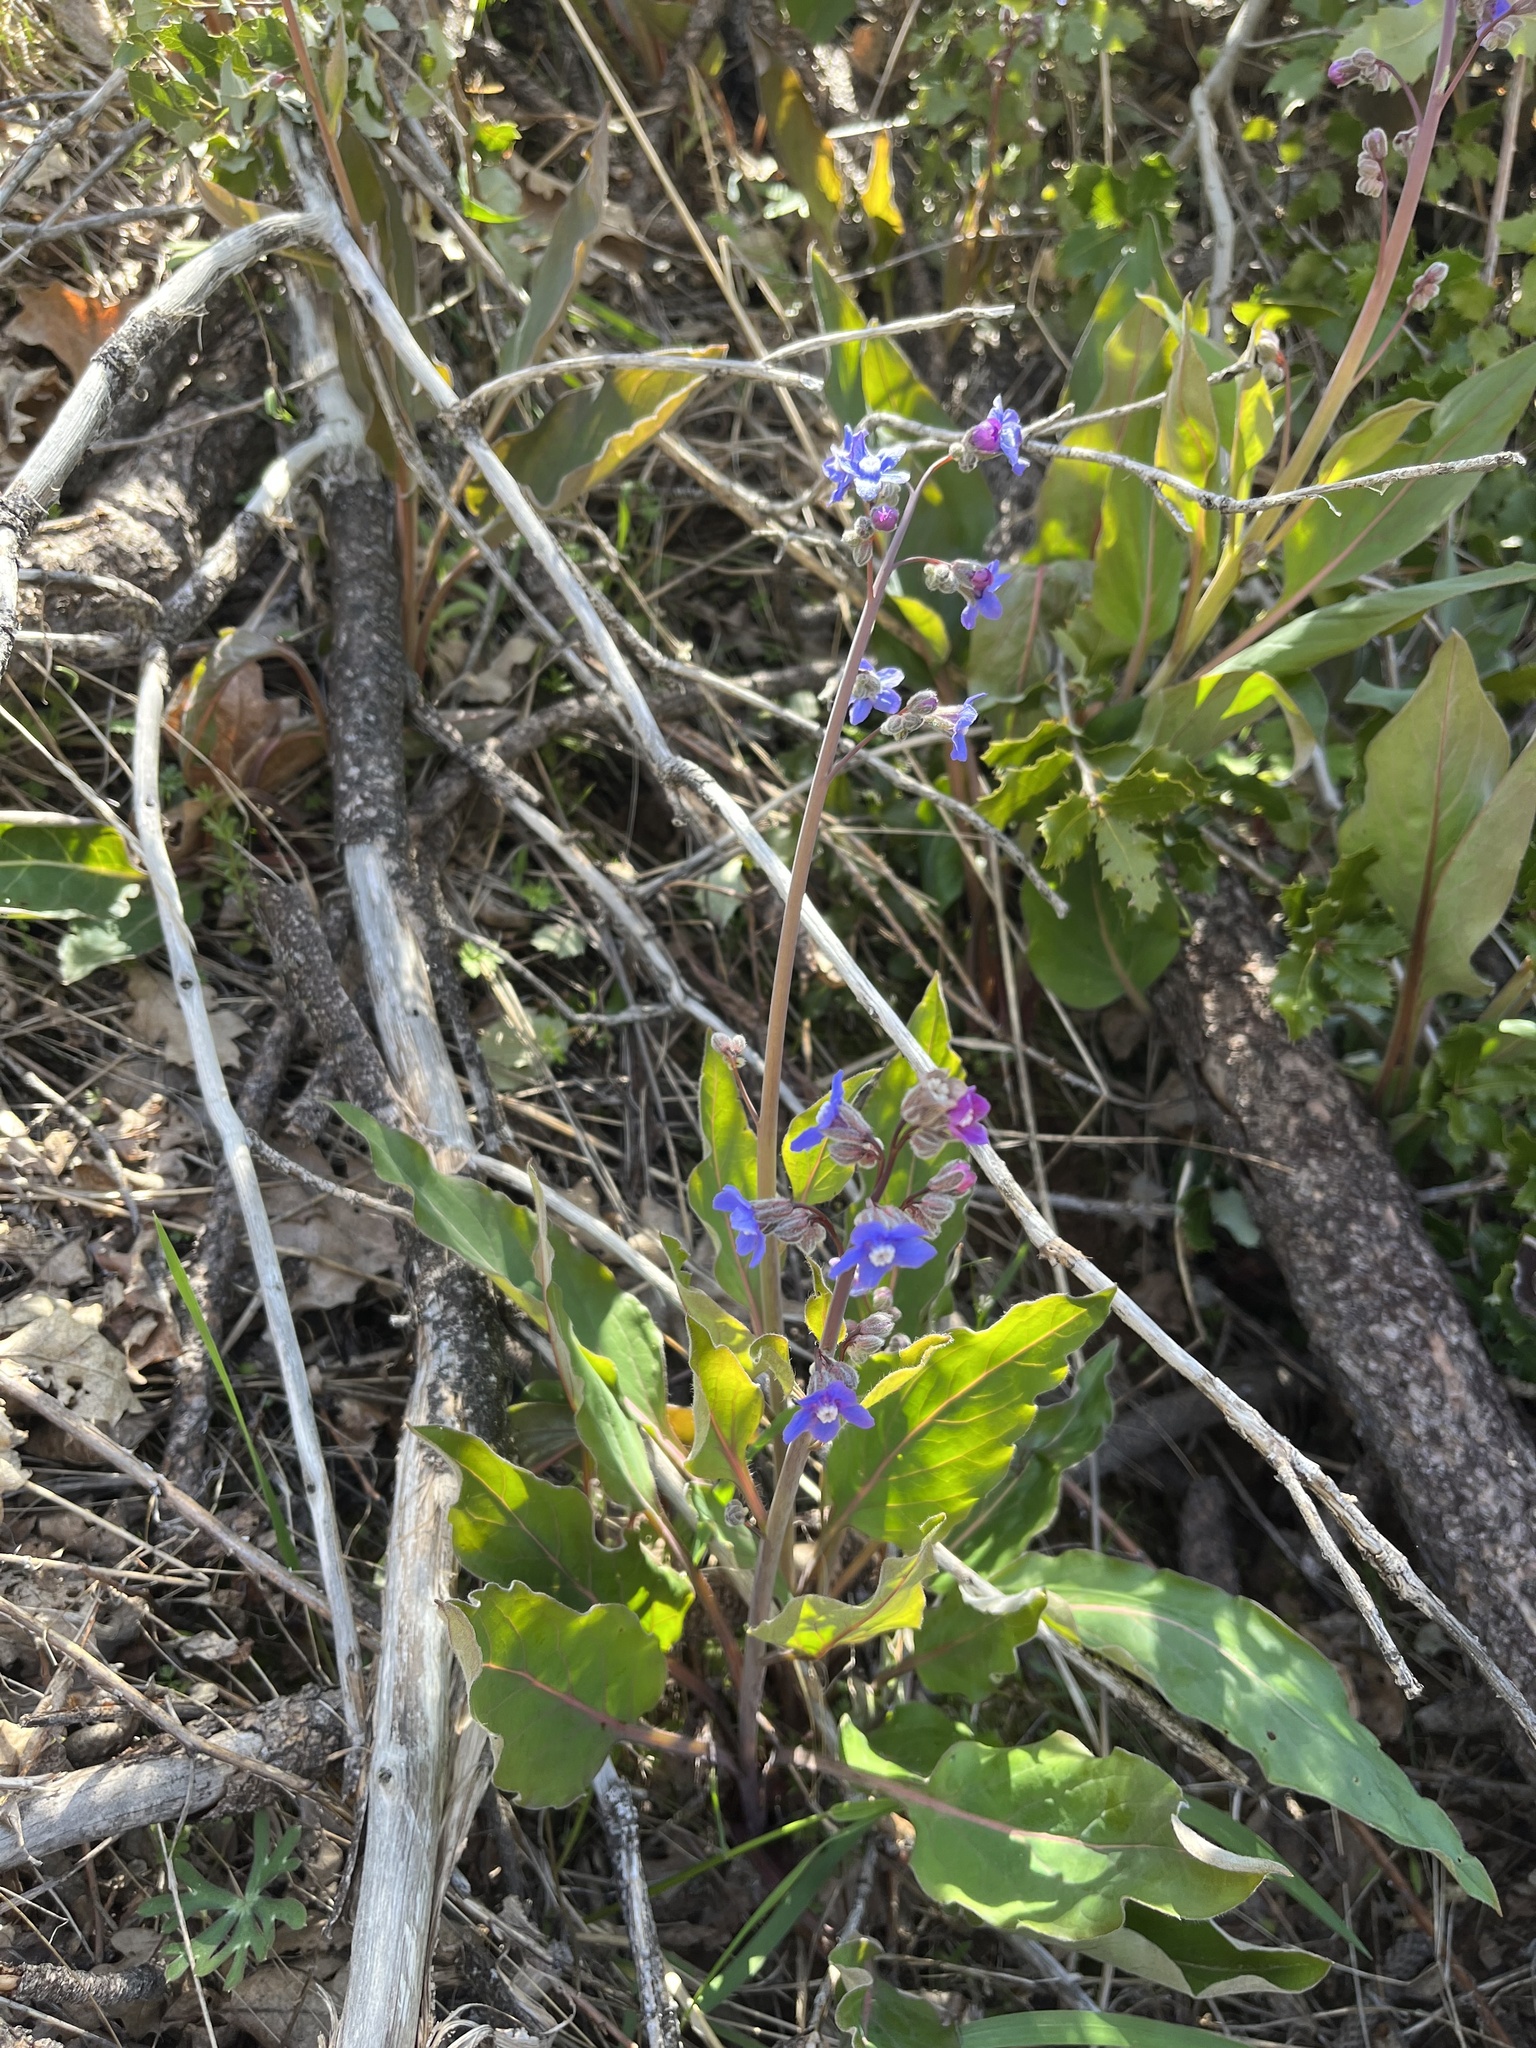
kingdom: Plantae
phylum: Tracheophyta
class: Magnoliopsida
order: Boraginales
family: Boraginaceae
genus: Adelinia
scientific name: Adelinia grande
